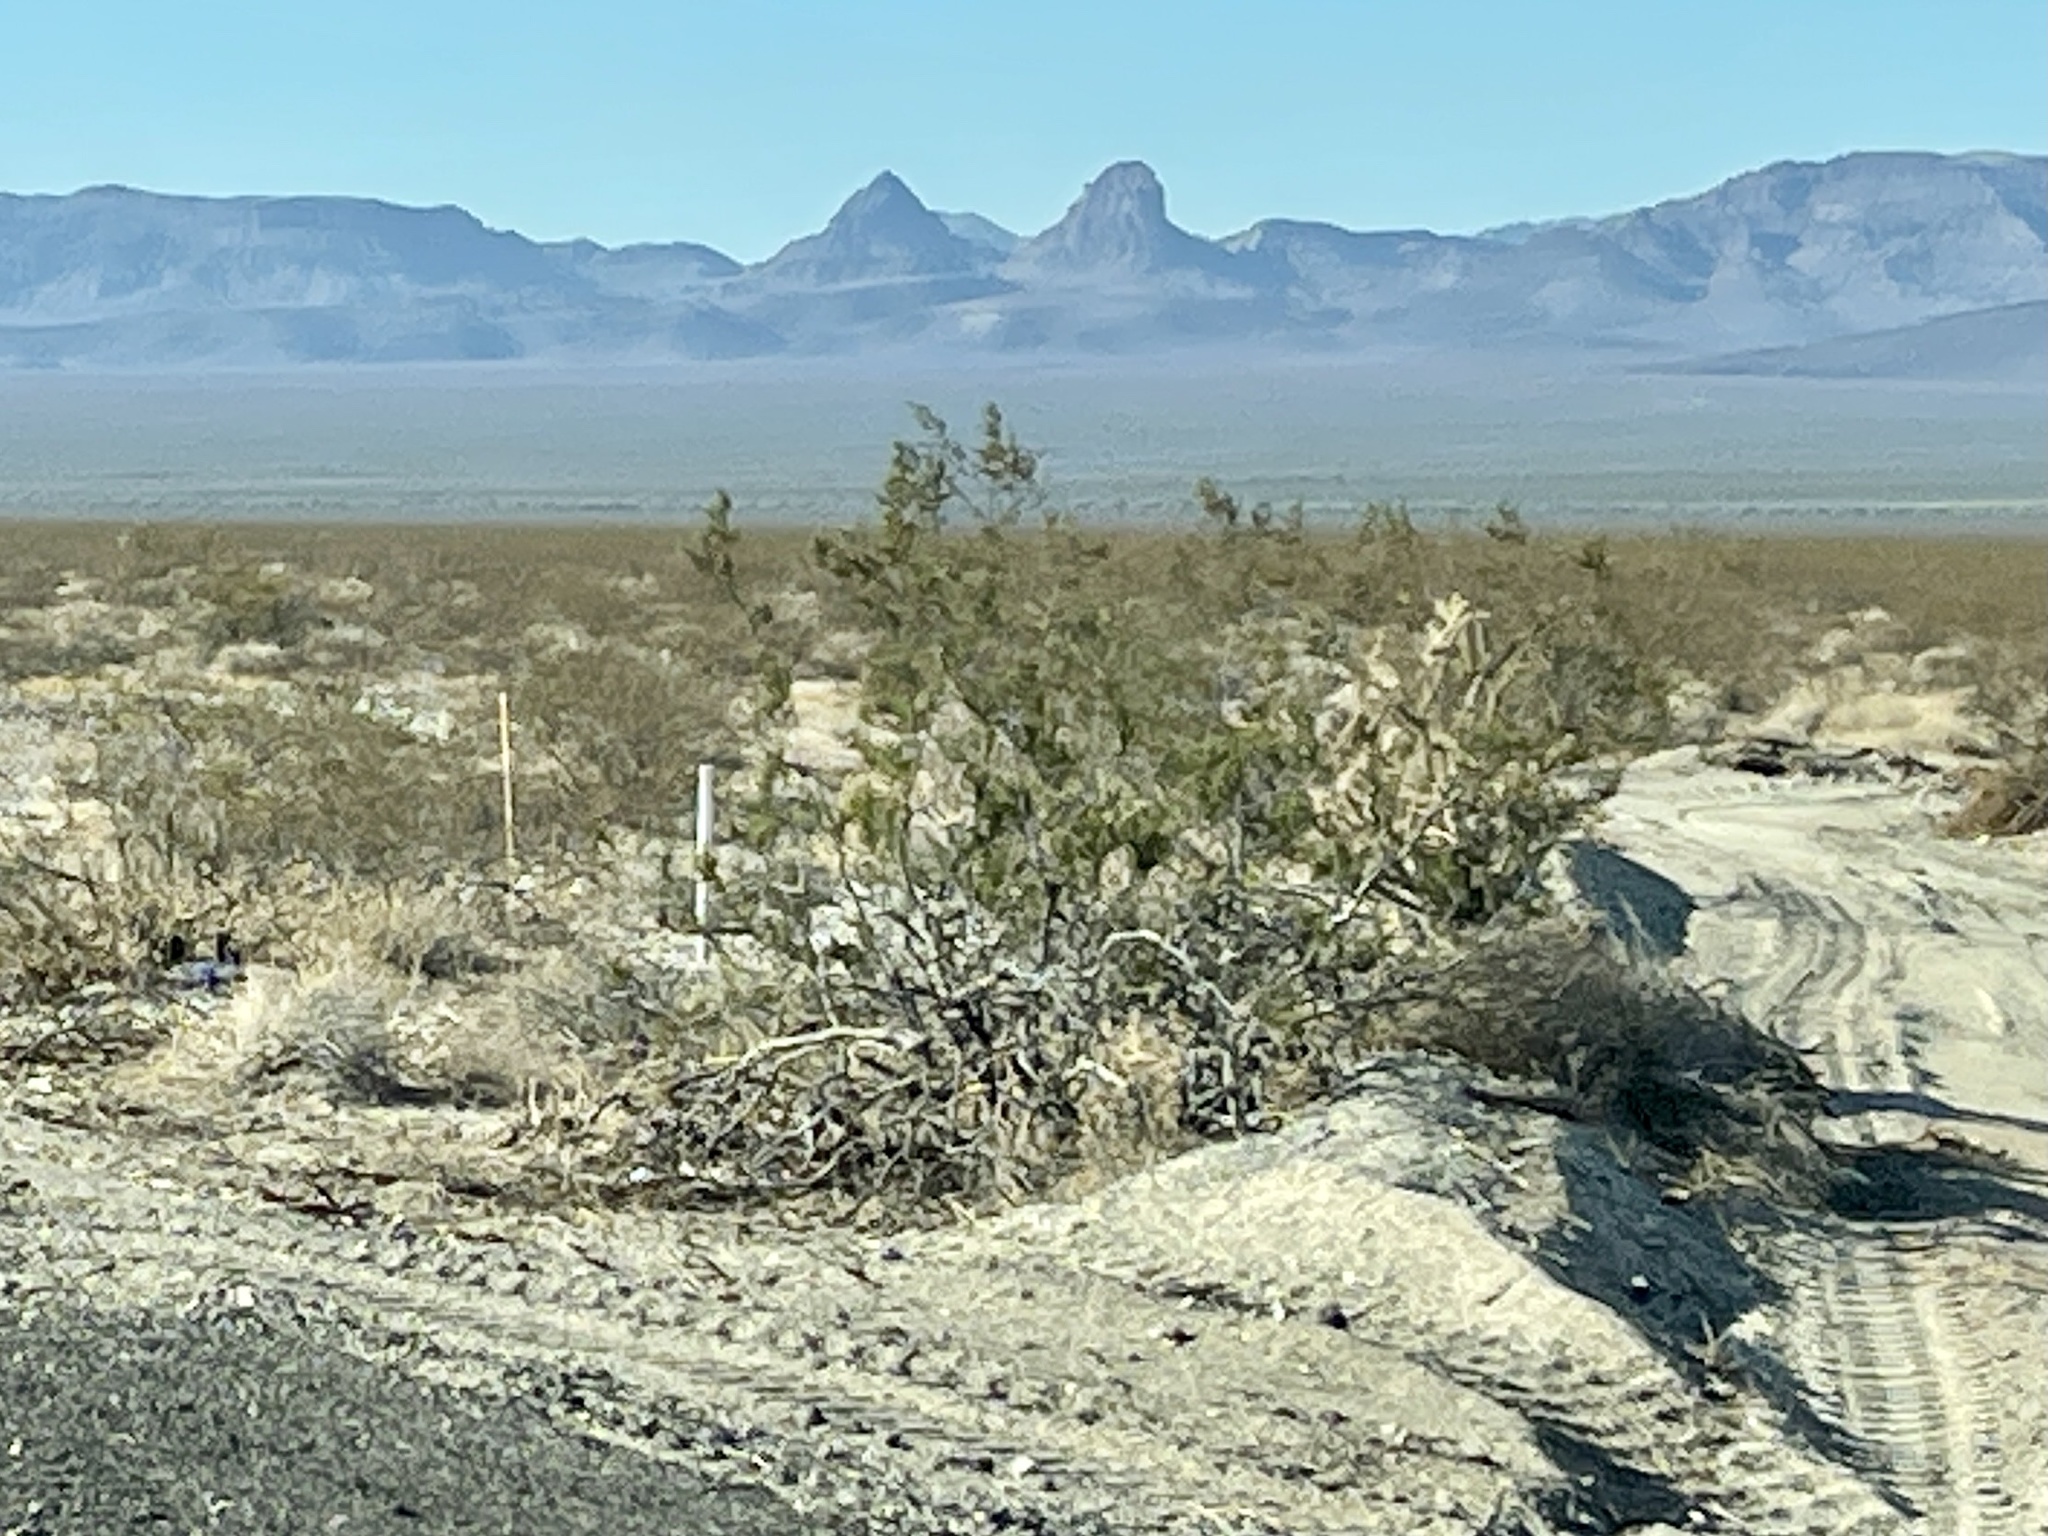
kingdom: Plantae
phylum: Tracheophyta
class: Magnoliopsida
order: Zygophyllales
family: Zygophyllaceae
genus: Larrea
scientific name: Larrea tridentata
